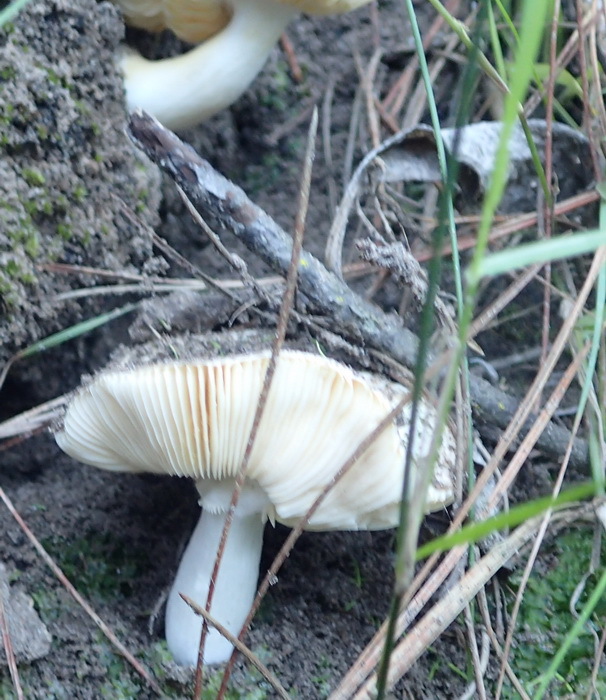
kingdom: Fungi
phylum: Basidiomycota
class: Agaricomycetes
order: Russulales
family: Russulaceae
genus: Russula
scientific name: Russula sororia
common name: Sepia brittlegill
